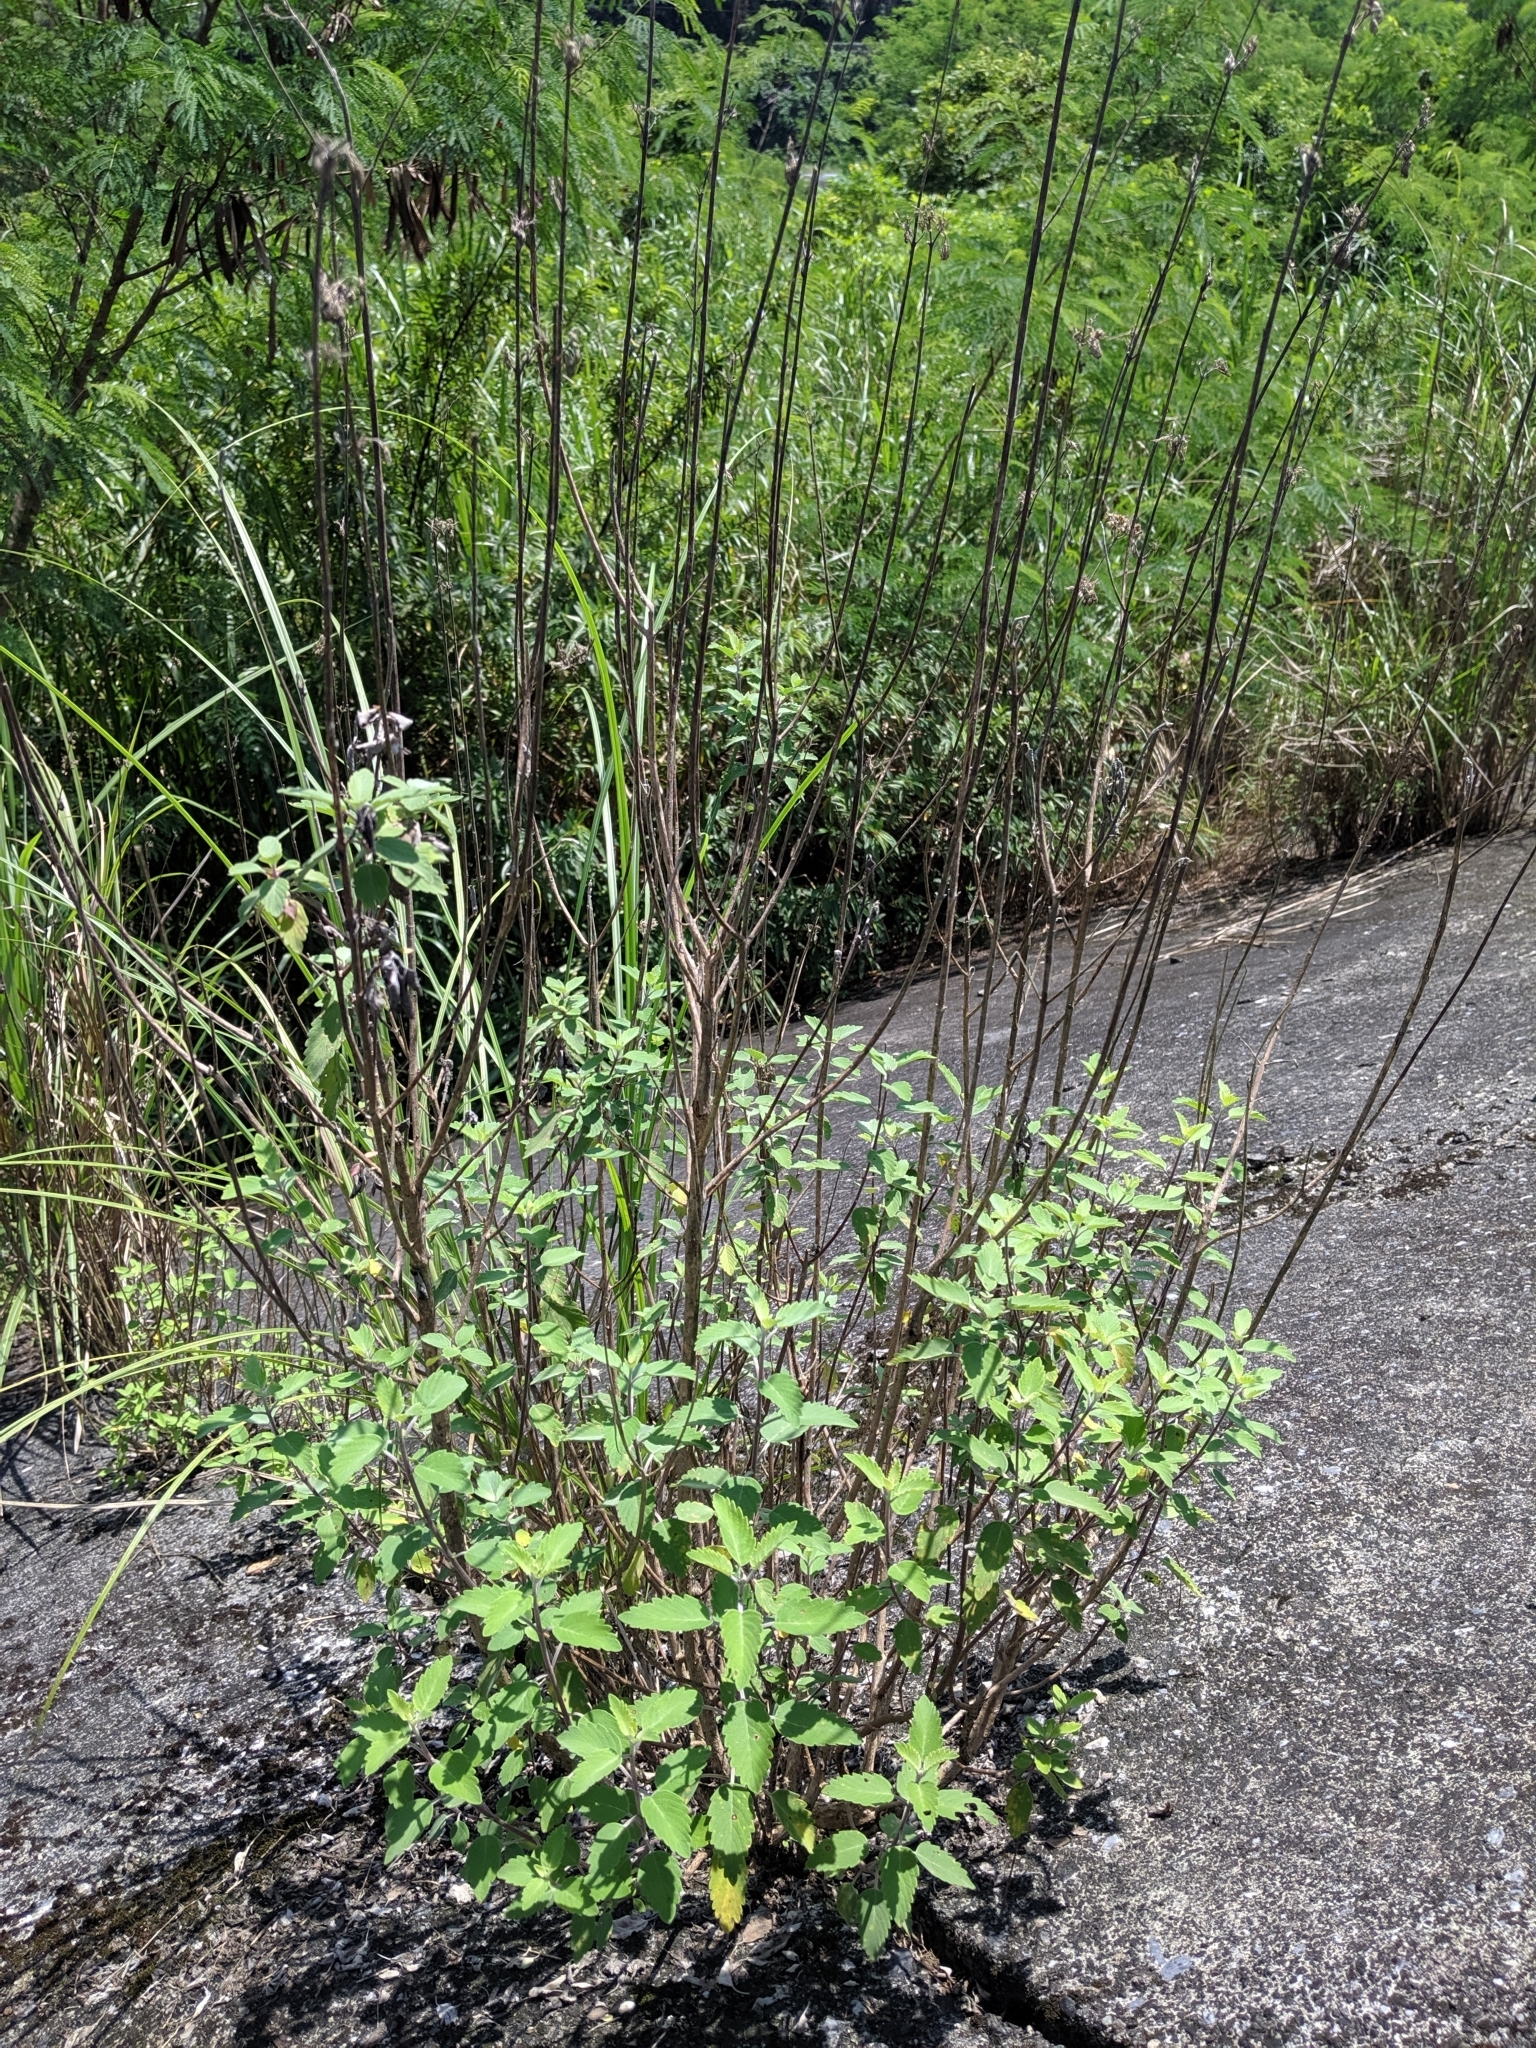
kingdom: Plantae
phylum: Tracheophyta
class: Magnoliopsida
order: Lamiales
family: Lamiaceae
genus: Caryopteris
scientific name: Caryopteris incana
